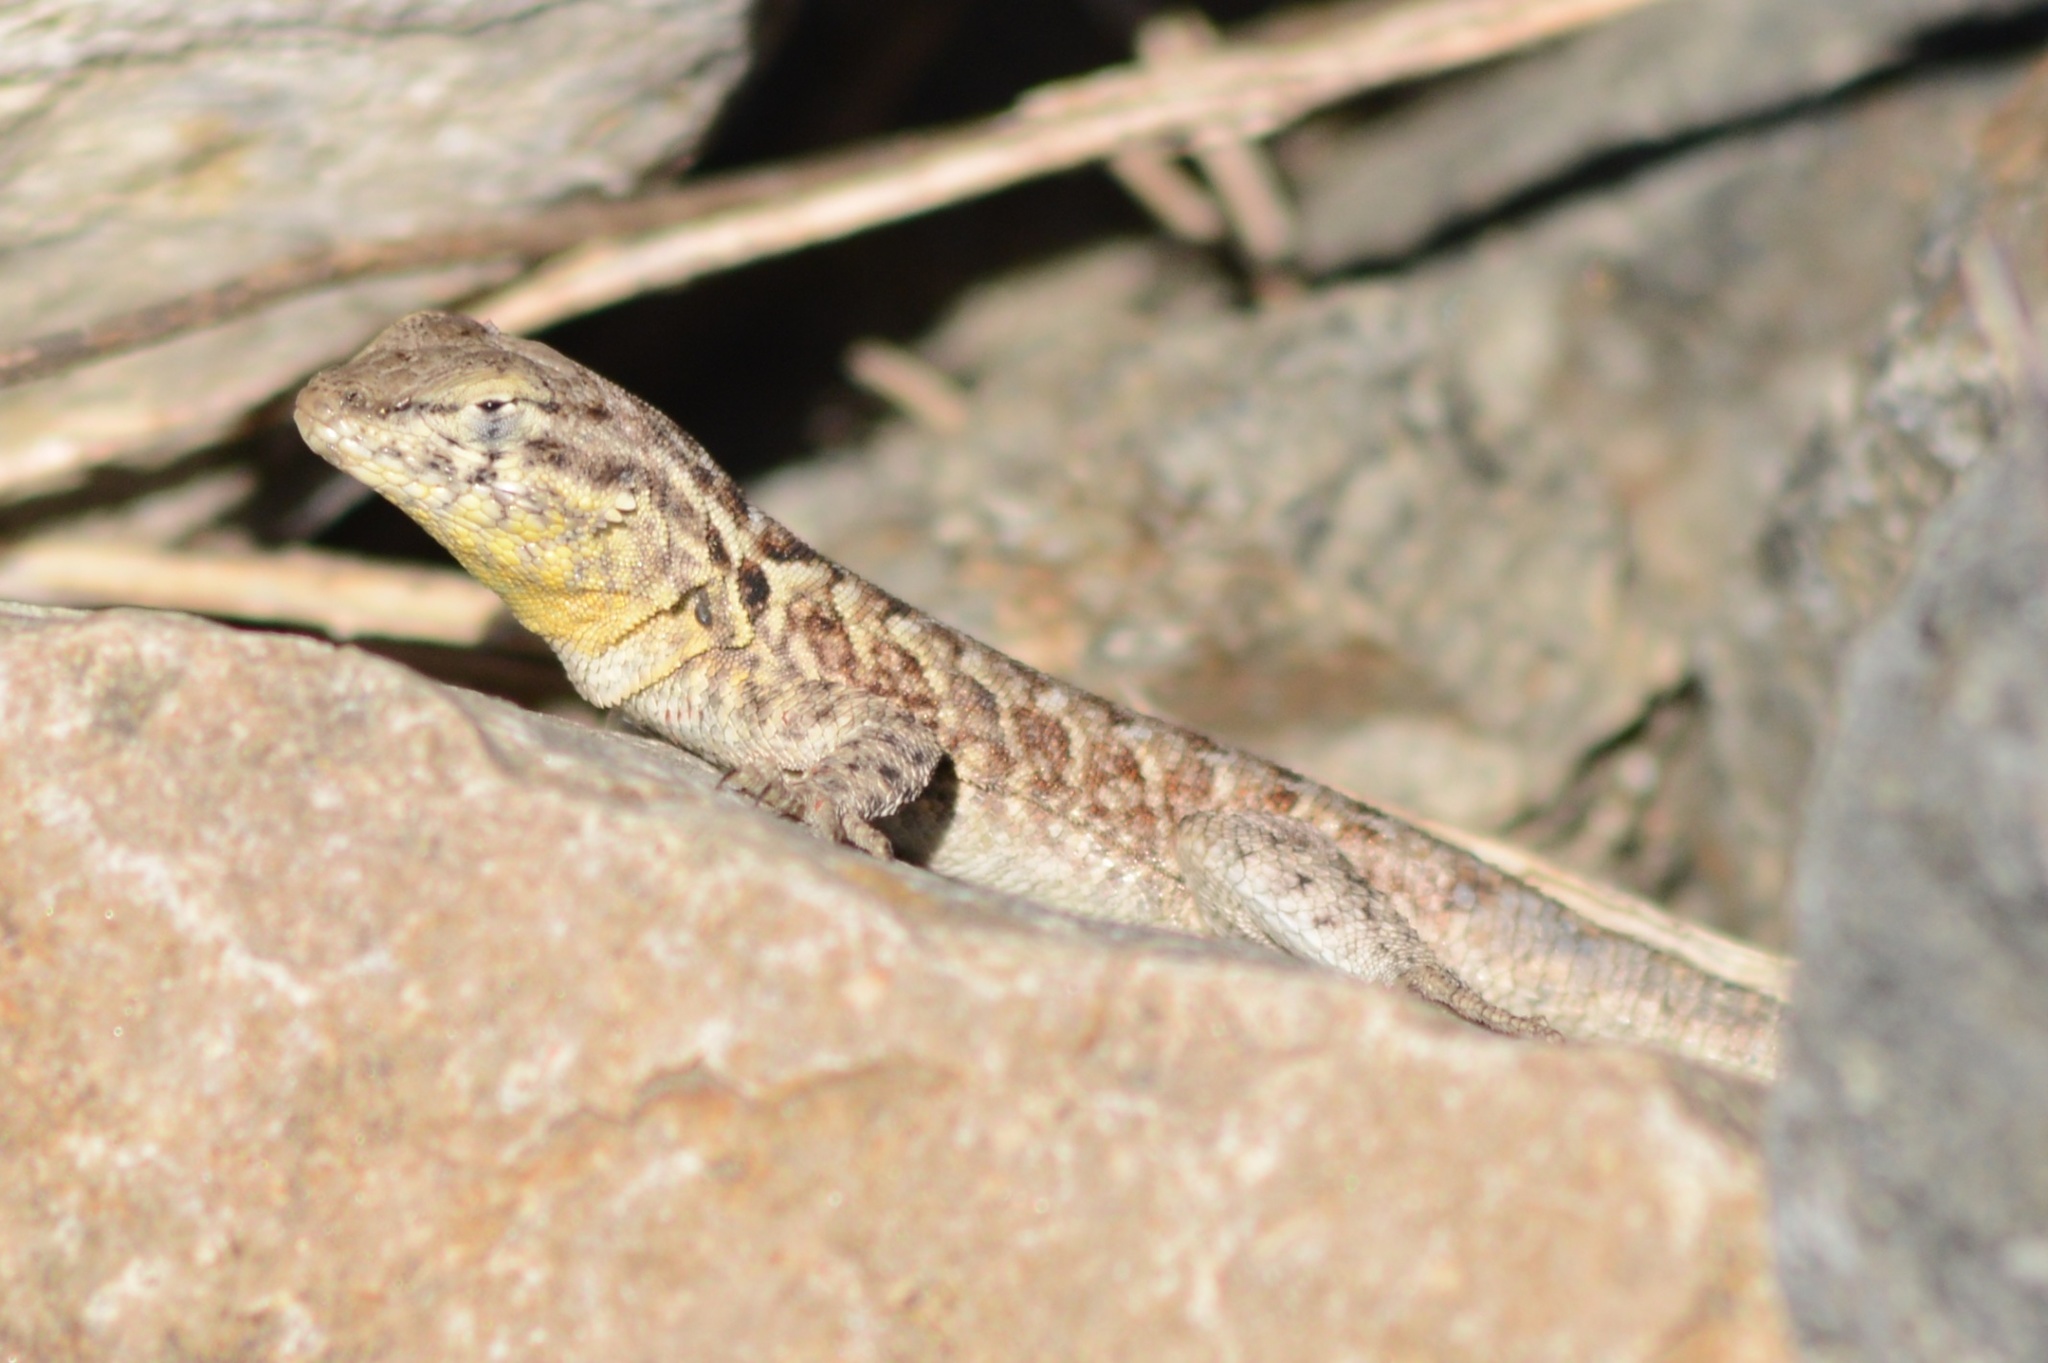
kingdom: Animalia
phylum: Chordata
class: Squamata
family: Phrynosomatidae
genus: Uta
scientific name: Uta stansburiana
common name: Side-blotched lizard
